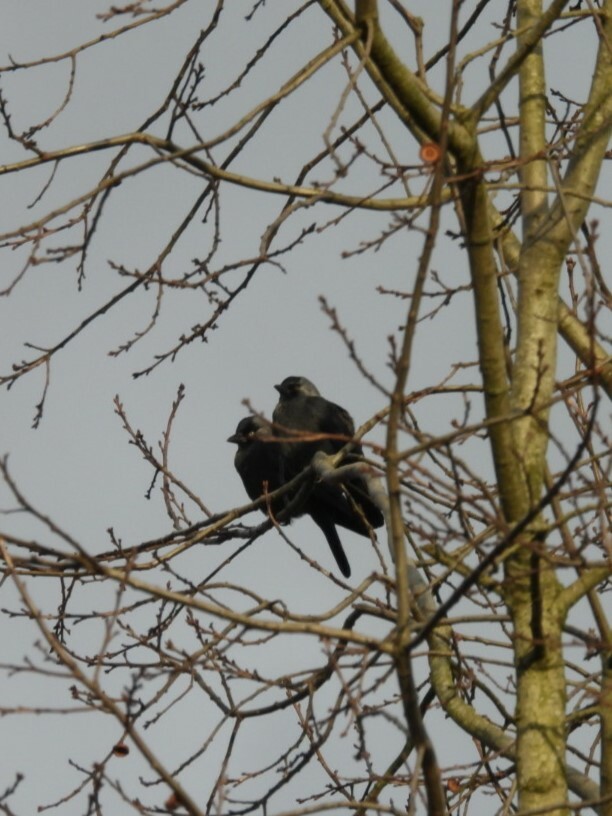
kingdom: Animalia
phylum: Chordata
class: Aves
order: Passeriformes
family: Corvidae
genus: Coloeus
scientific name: Coloeus monedula
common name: Western jackdaw
